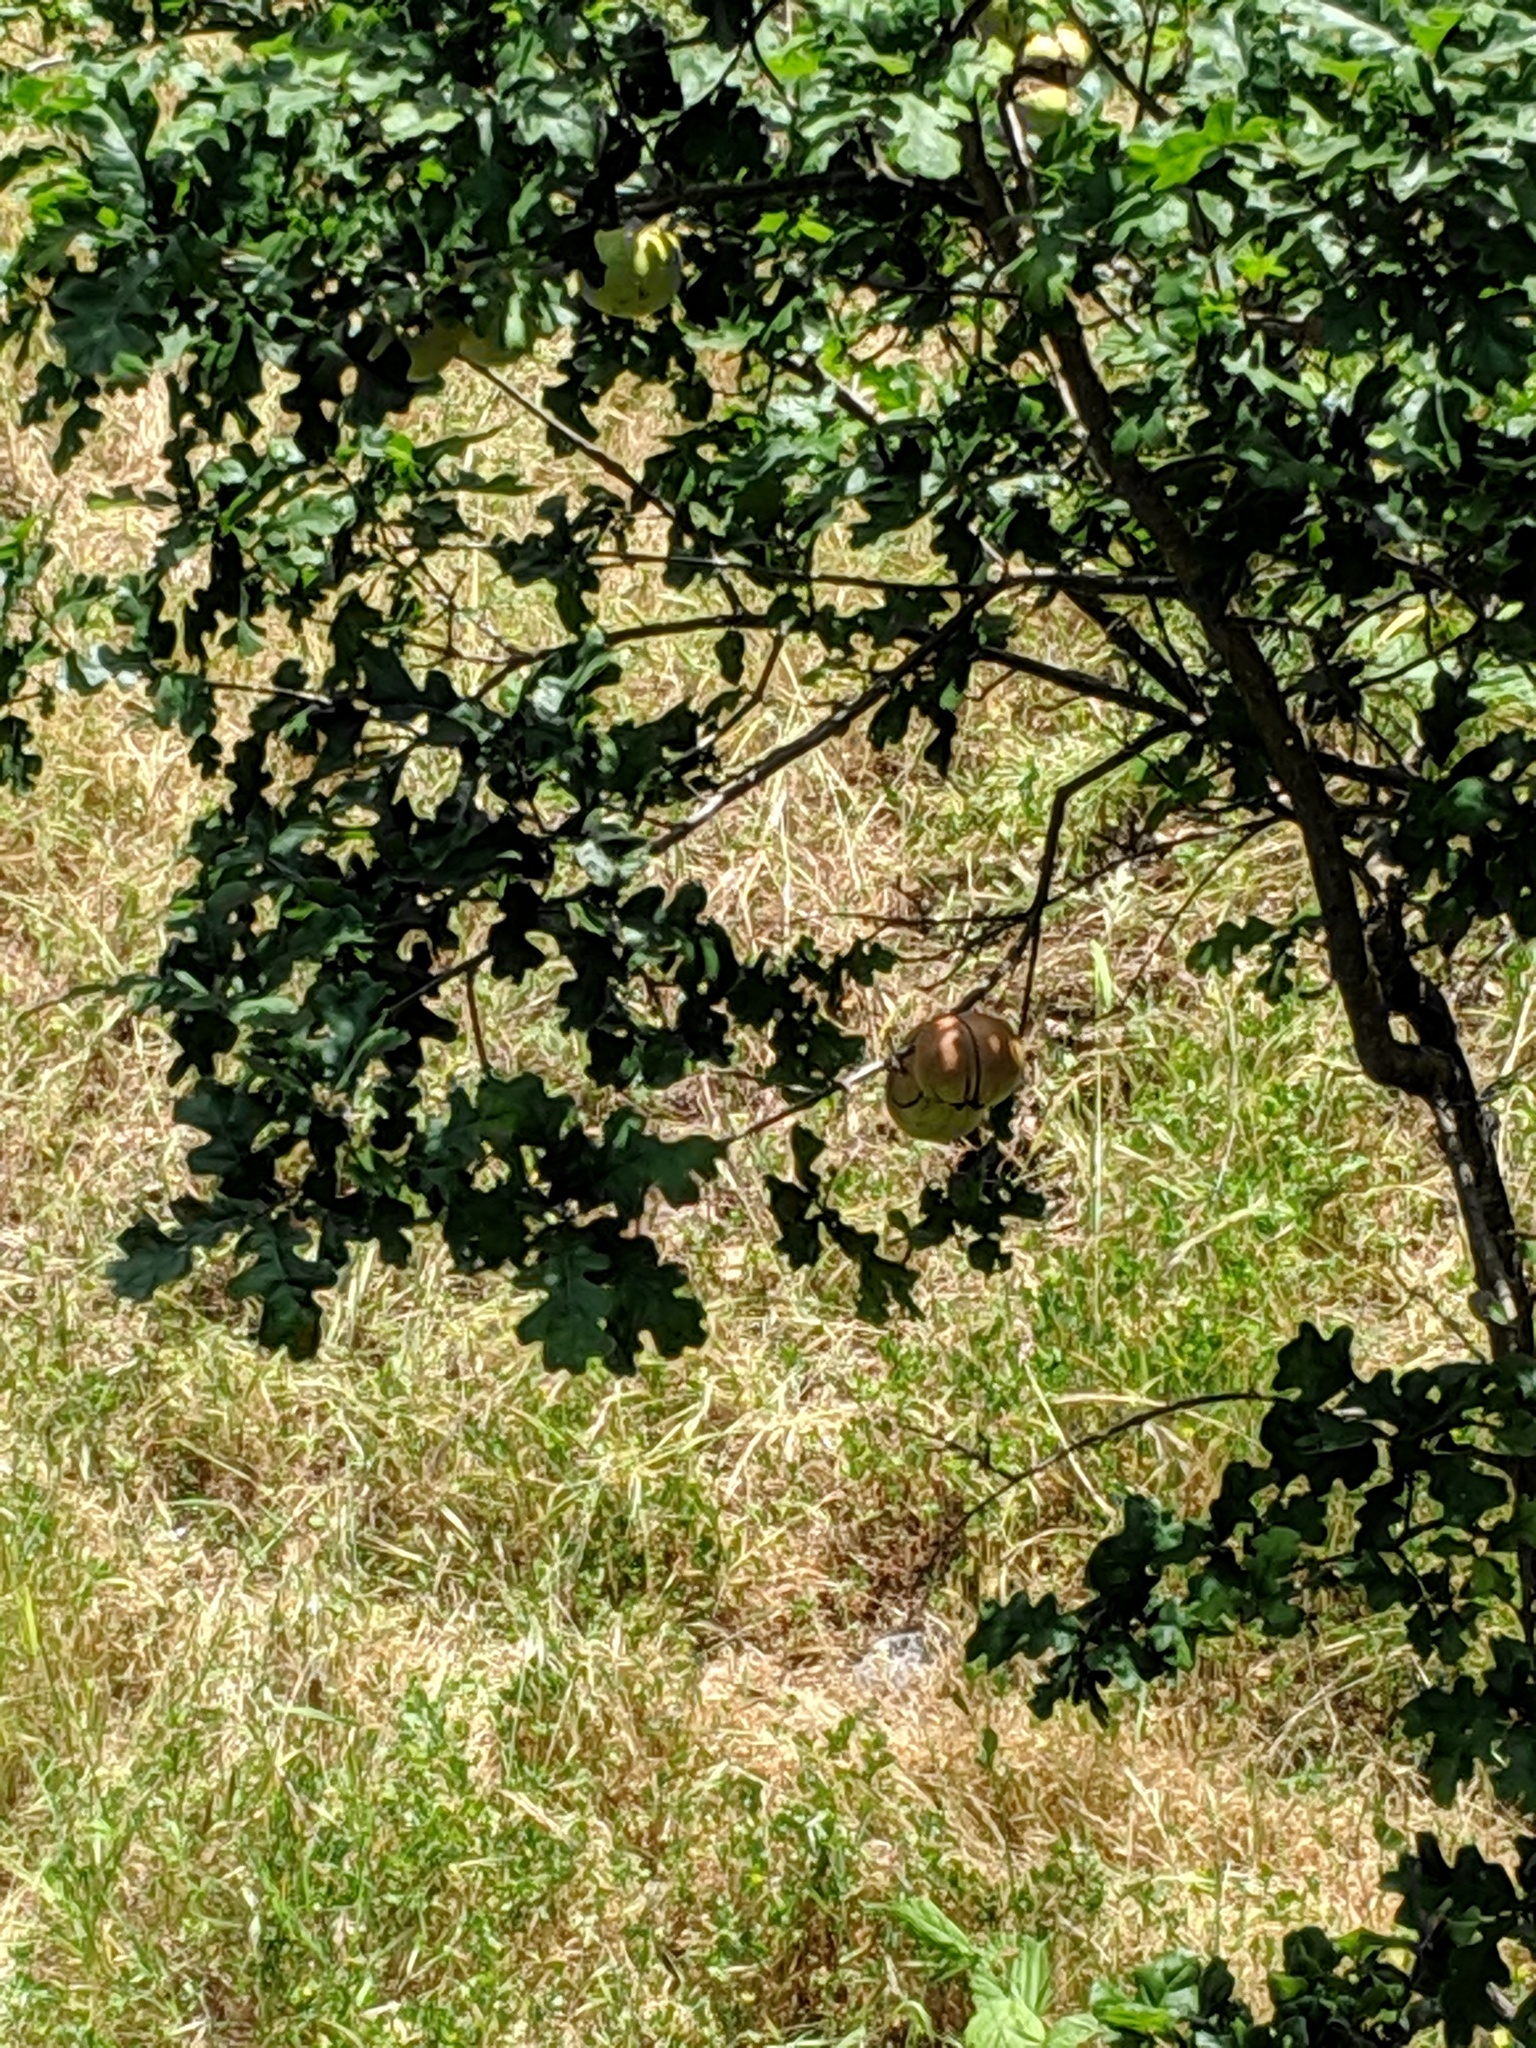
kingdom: Plantae
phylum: Tracheophyta
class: Magnoliopsida
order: Fagales
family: Fagaceae
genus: Quercus
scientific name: Quercus garryana
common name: Garry oak
